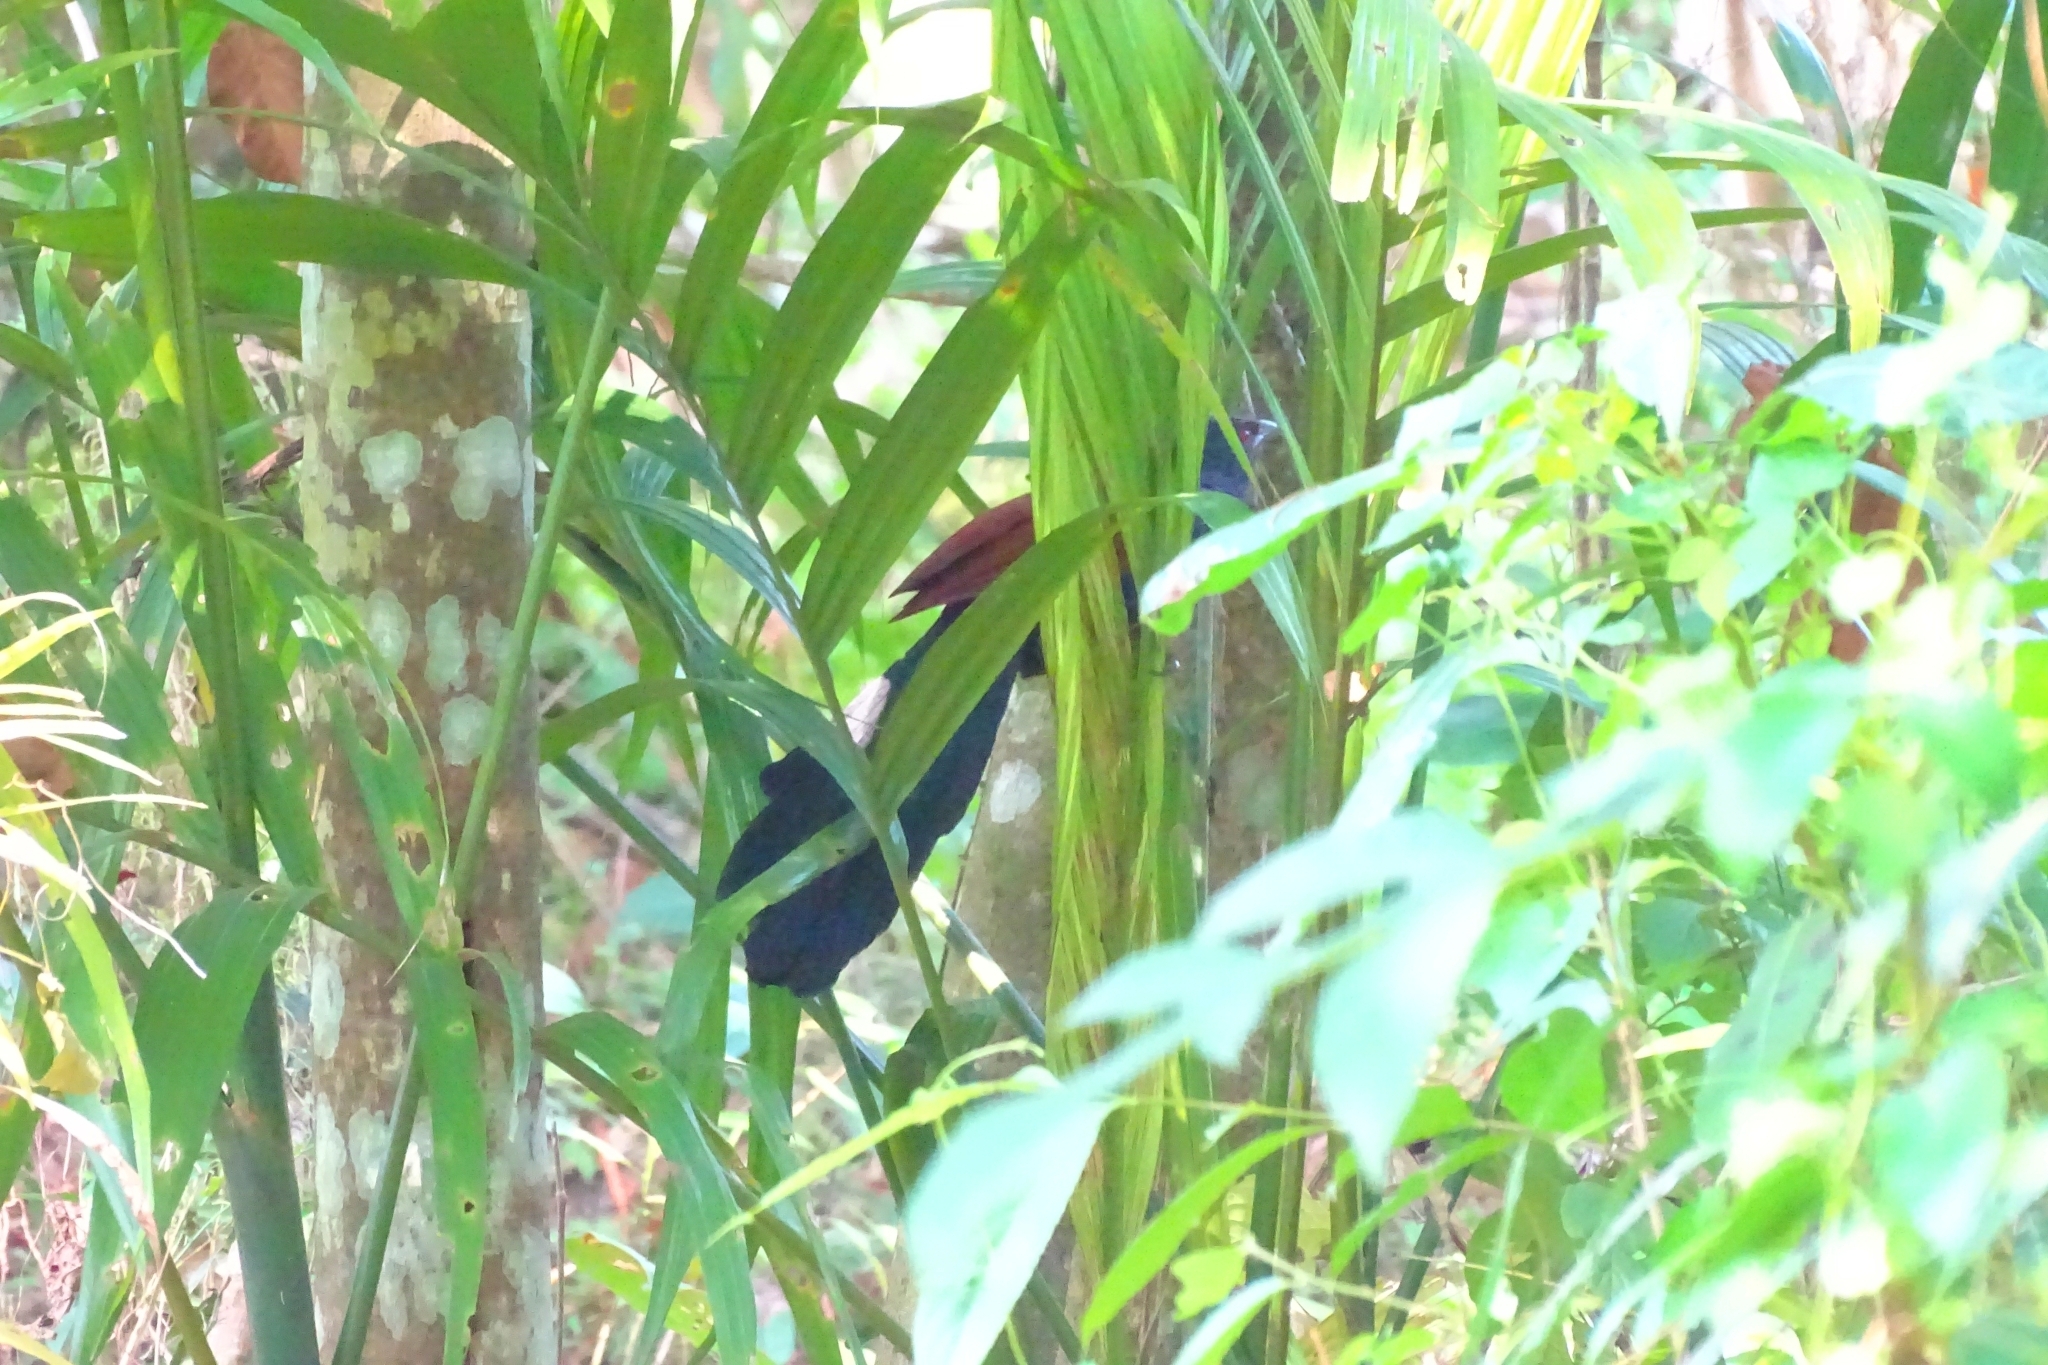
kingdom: Animalia
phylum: Chordata
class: Aves
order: Cuculiformes
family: Cuculidae
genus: Centropus
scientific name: Centropus sinensis
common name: Greater coucal
